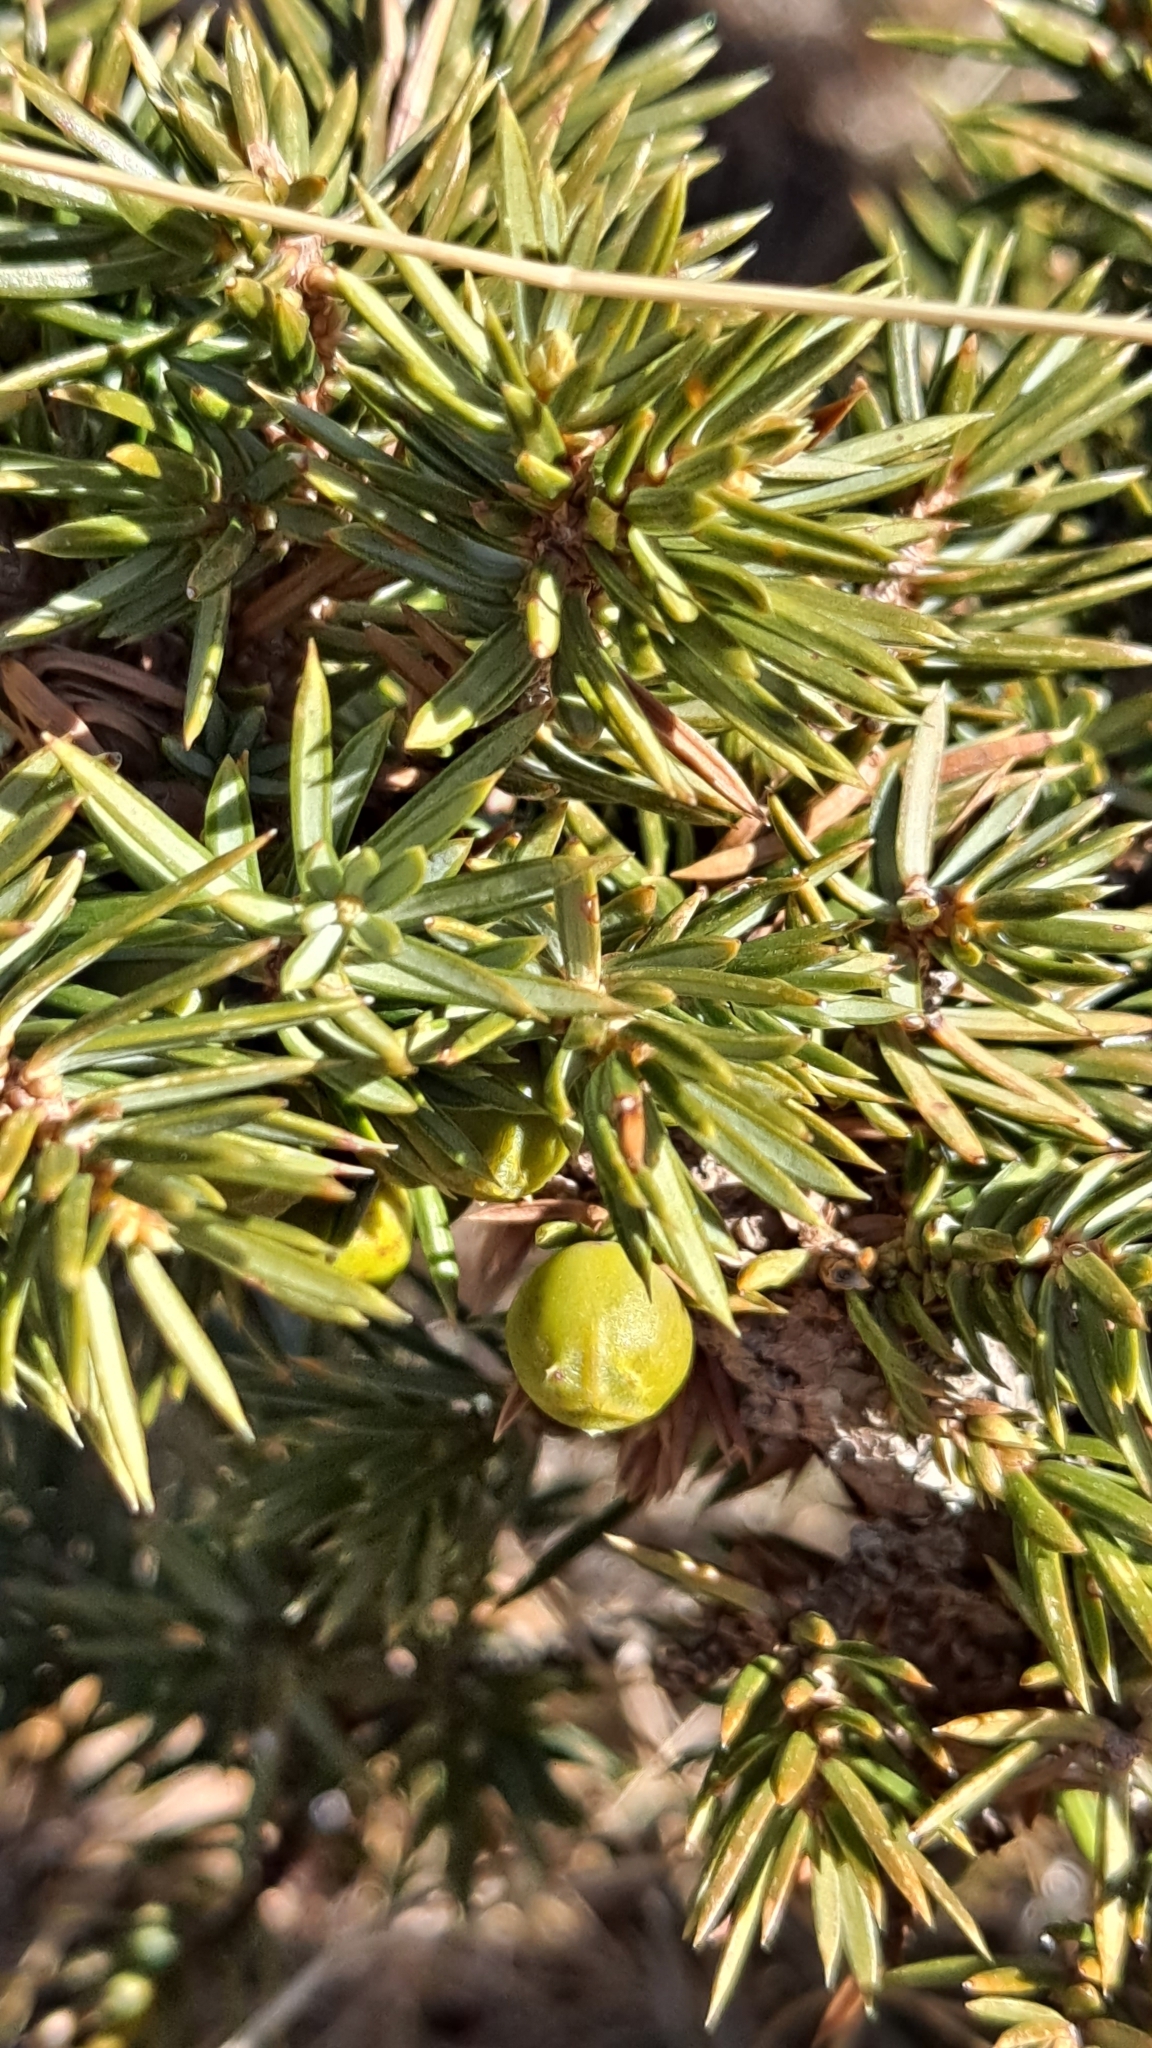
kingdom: Plantae
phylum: Tracheophyta
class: Pinopsida
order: Pinales
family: Cupressaceae
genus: Juniperus
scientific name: Juniperus communis
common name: Common juniper
